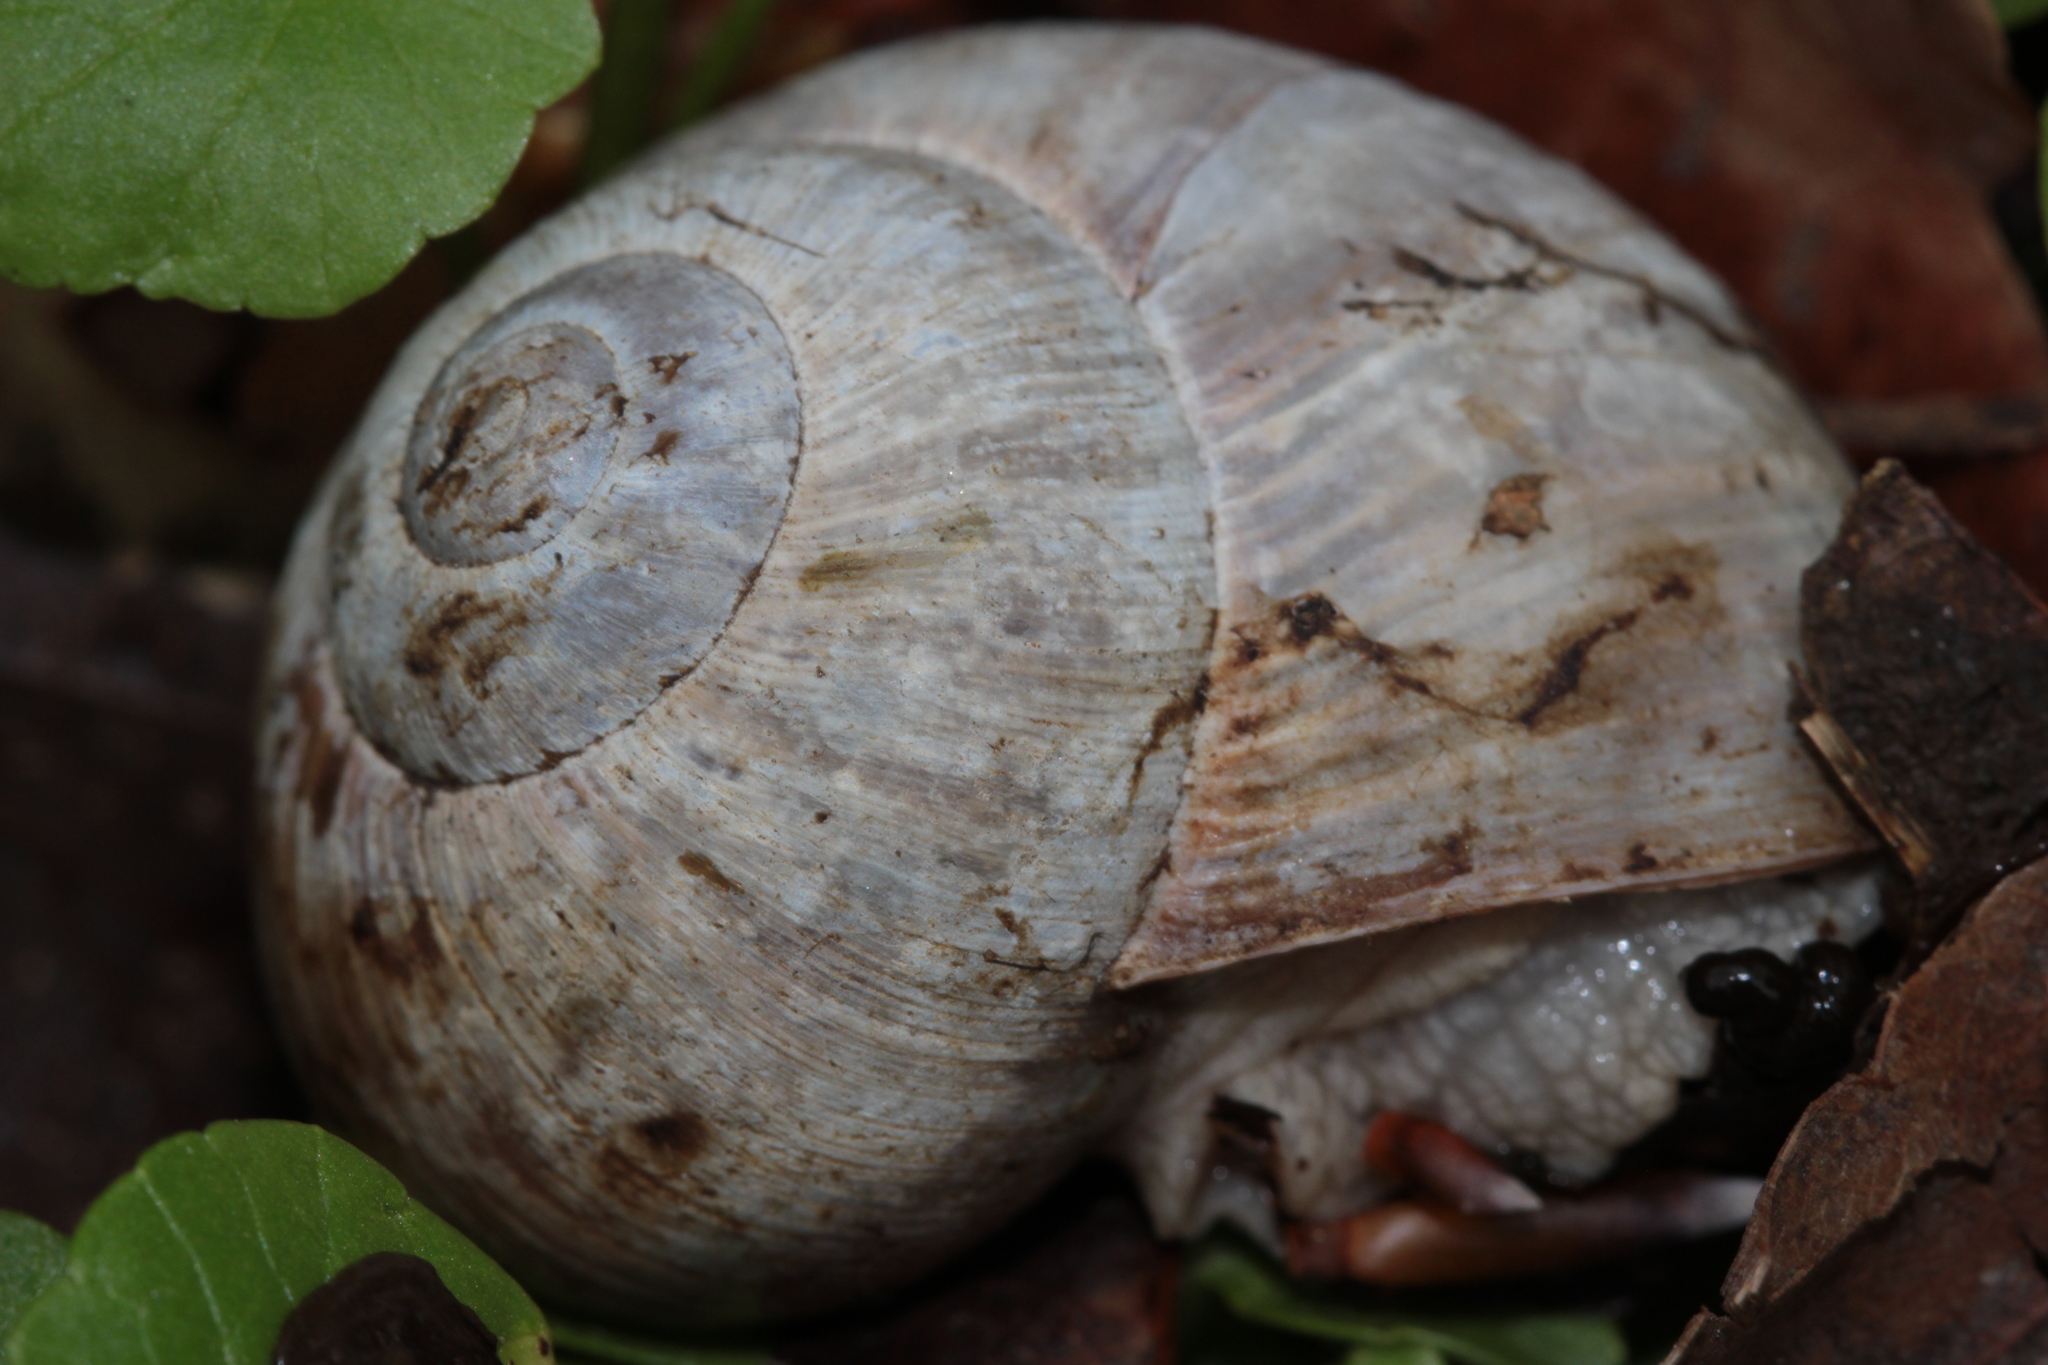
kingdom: Animalia
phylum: Mollusca
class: Gastropoda
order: Stylommatophora
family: Helicidae
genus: Helix
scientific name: Helix pomatia
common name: Roman snail
